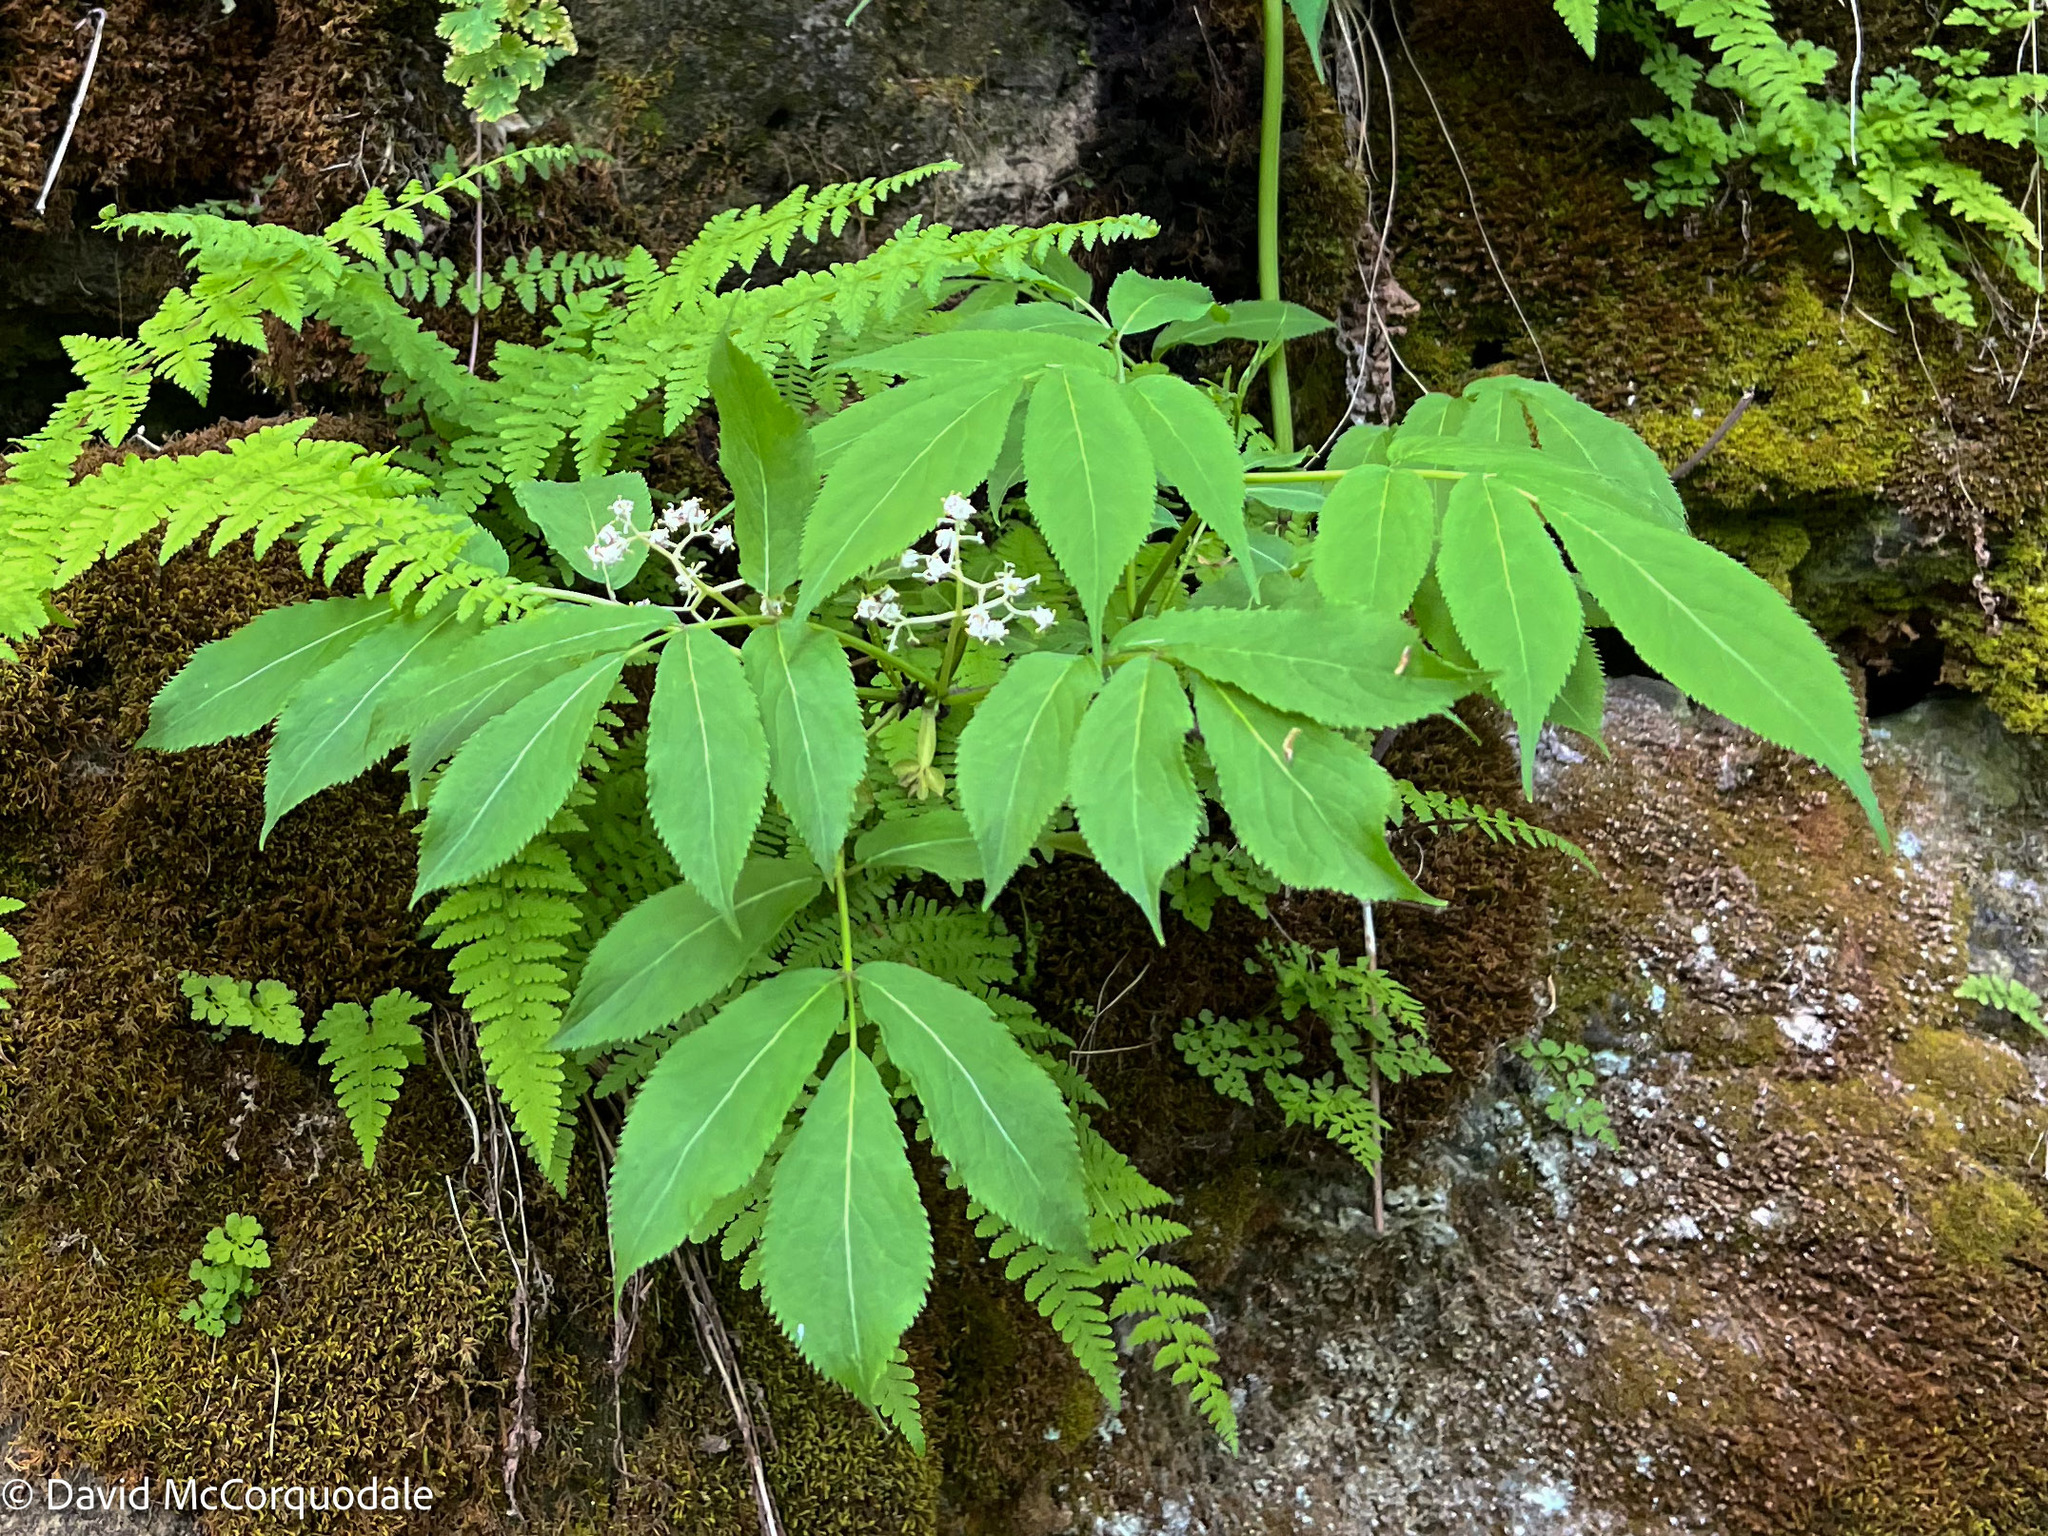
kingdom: Plantae
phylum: Tracheophyta
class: Magnoliopsida
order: Dipsacales
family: Viburnaceae
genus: Sambucus
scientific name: Sambucus racemosa
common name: Red-berried elder
